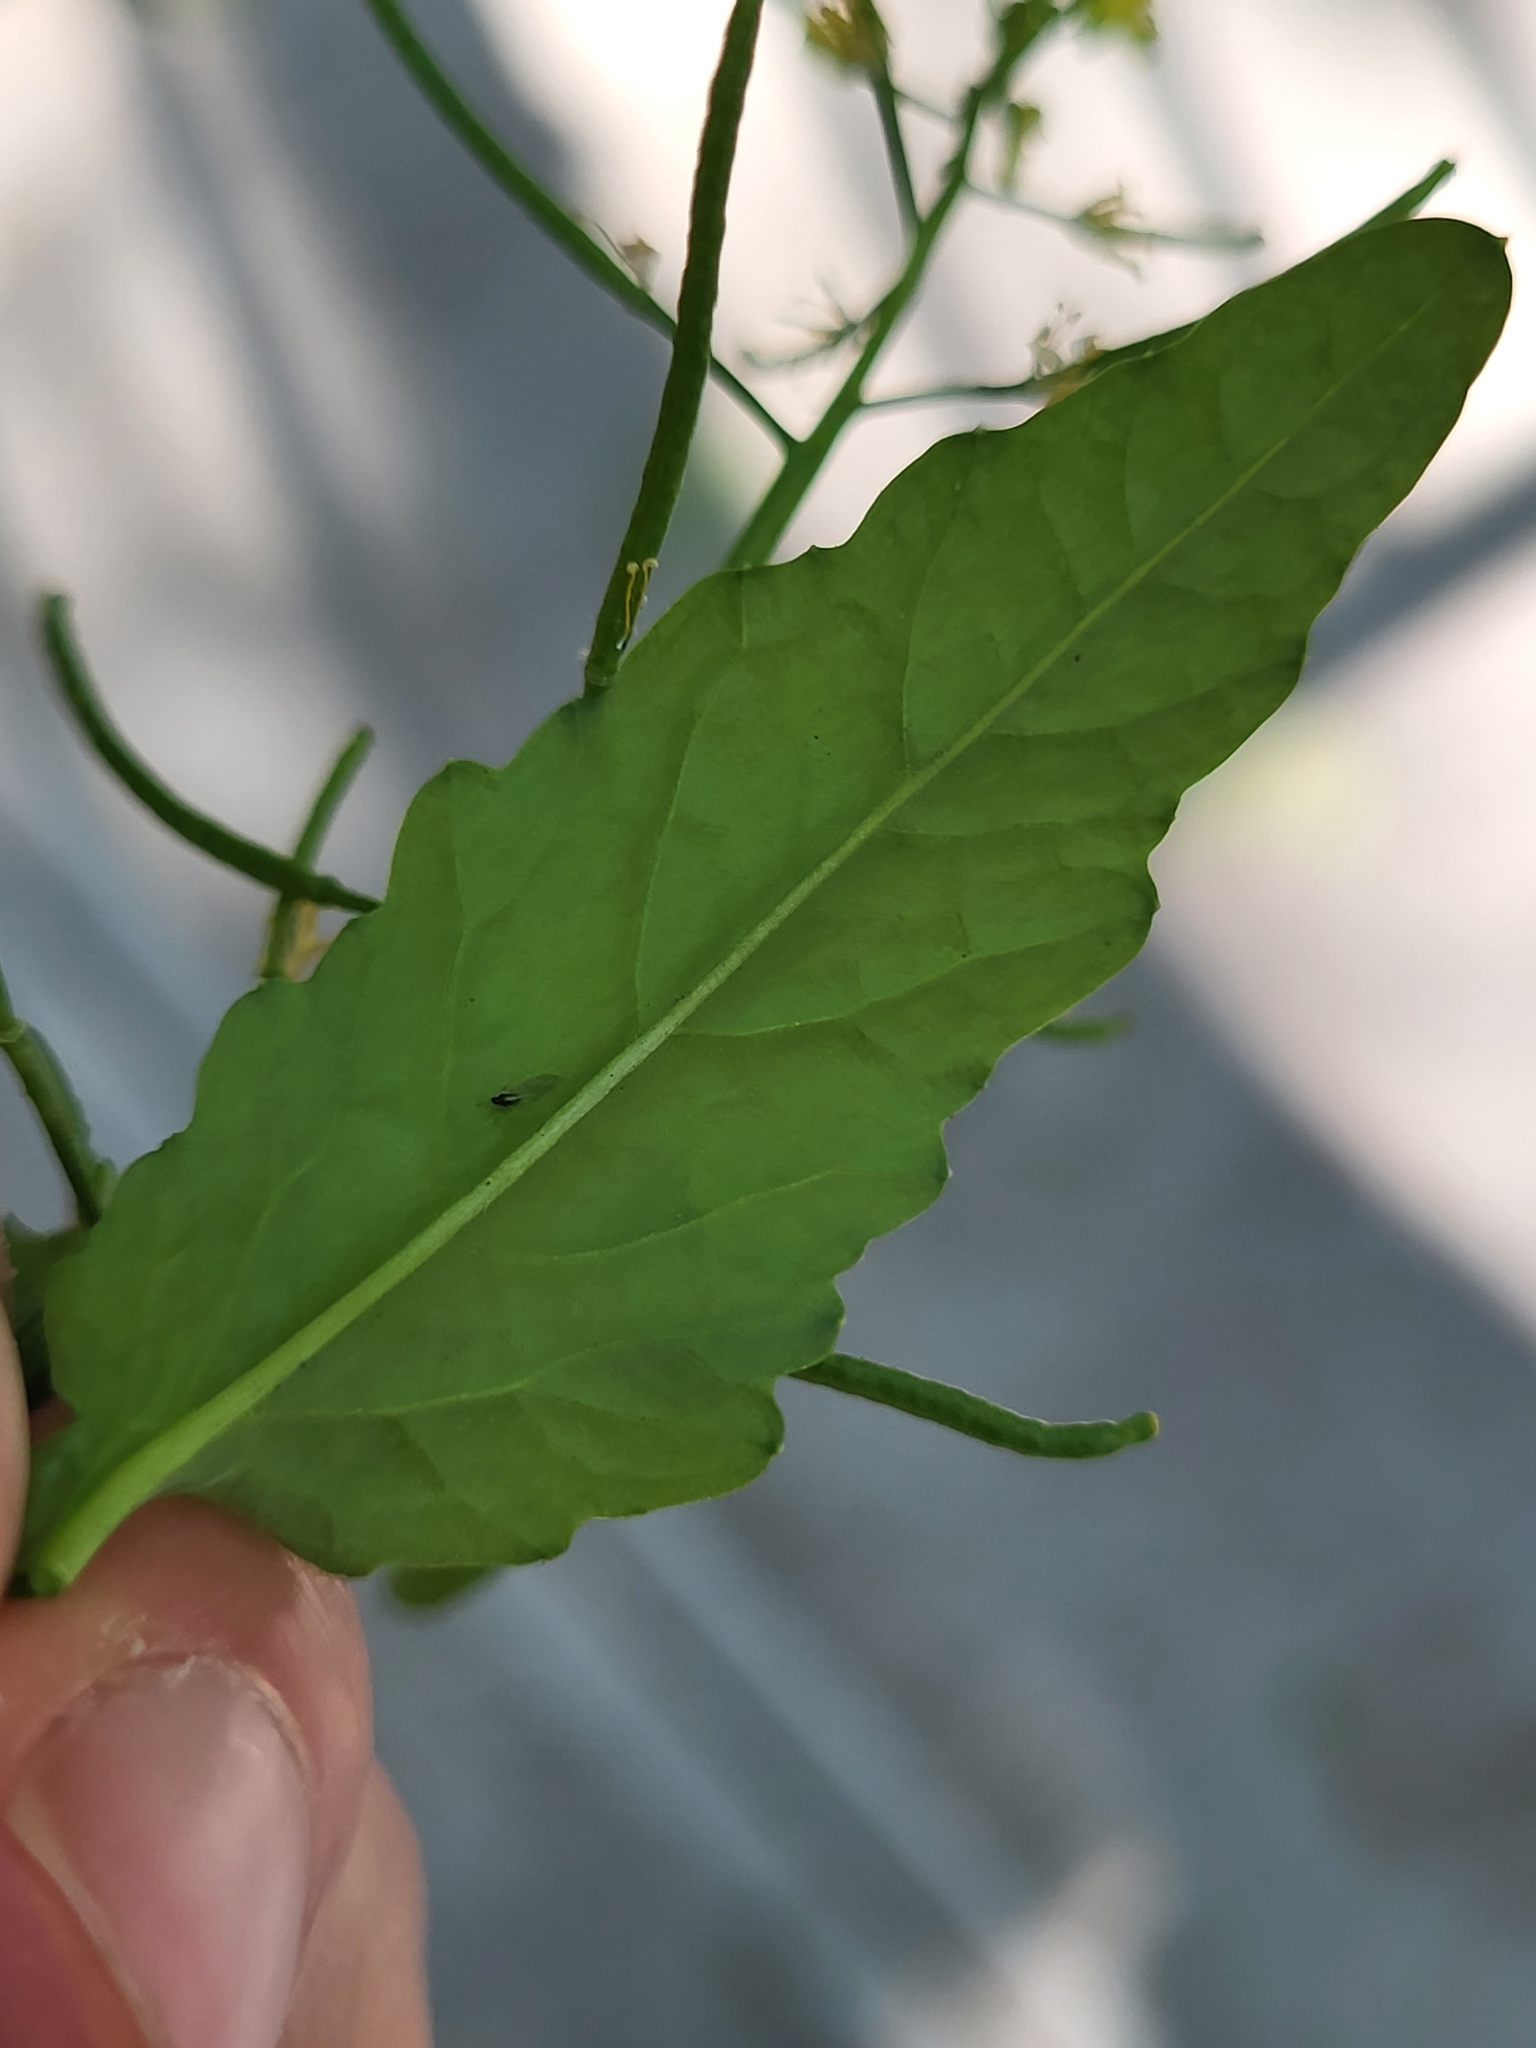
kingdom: Plantae
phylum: Tracheophyta
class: Magnoliopsida
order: Brassicales
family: Brassicaceae
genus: Rorippa
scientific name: Rorippa indica
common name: Variableleaf yellowcress
